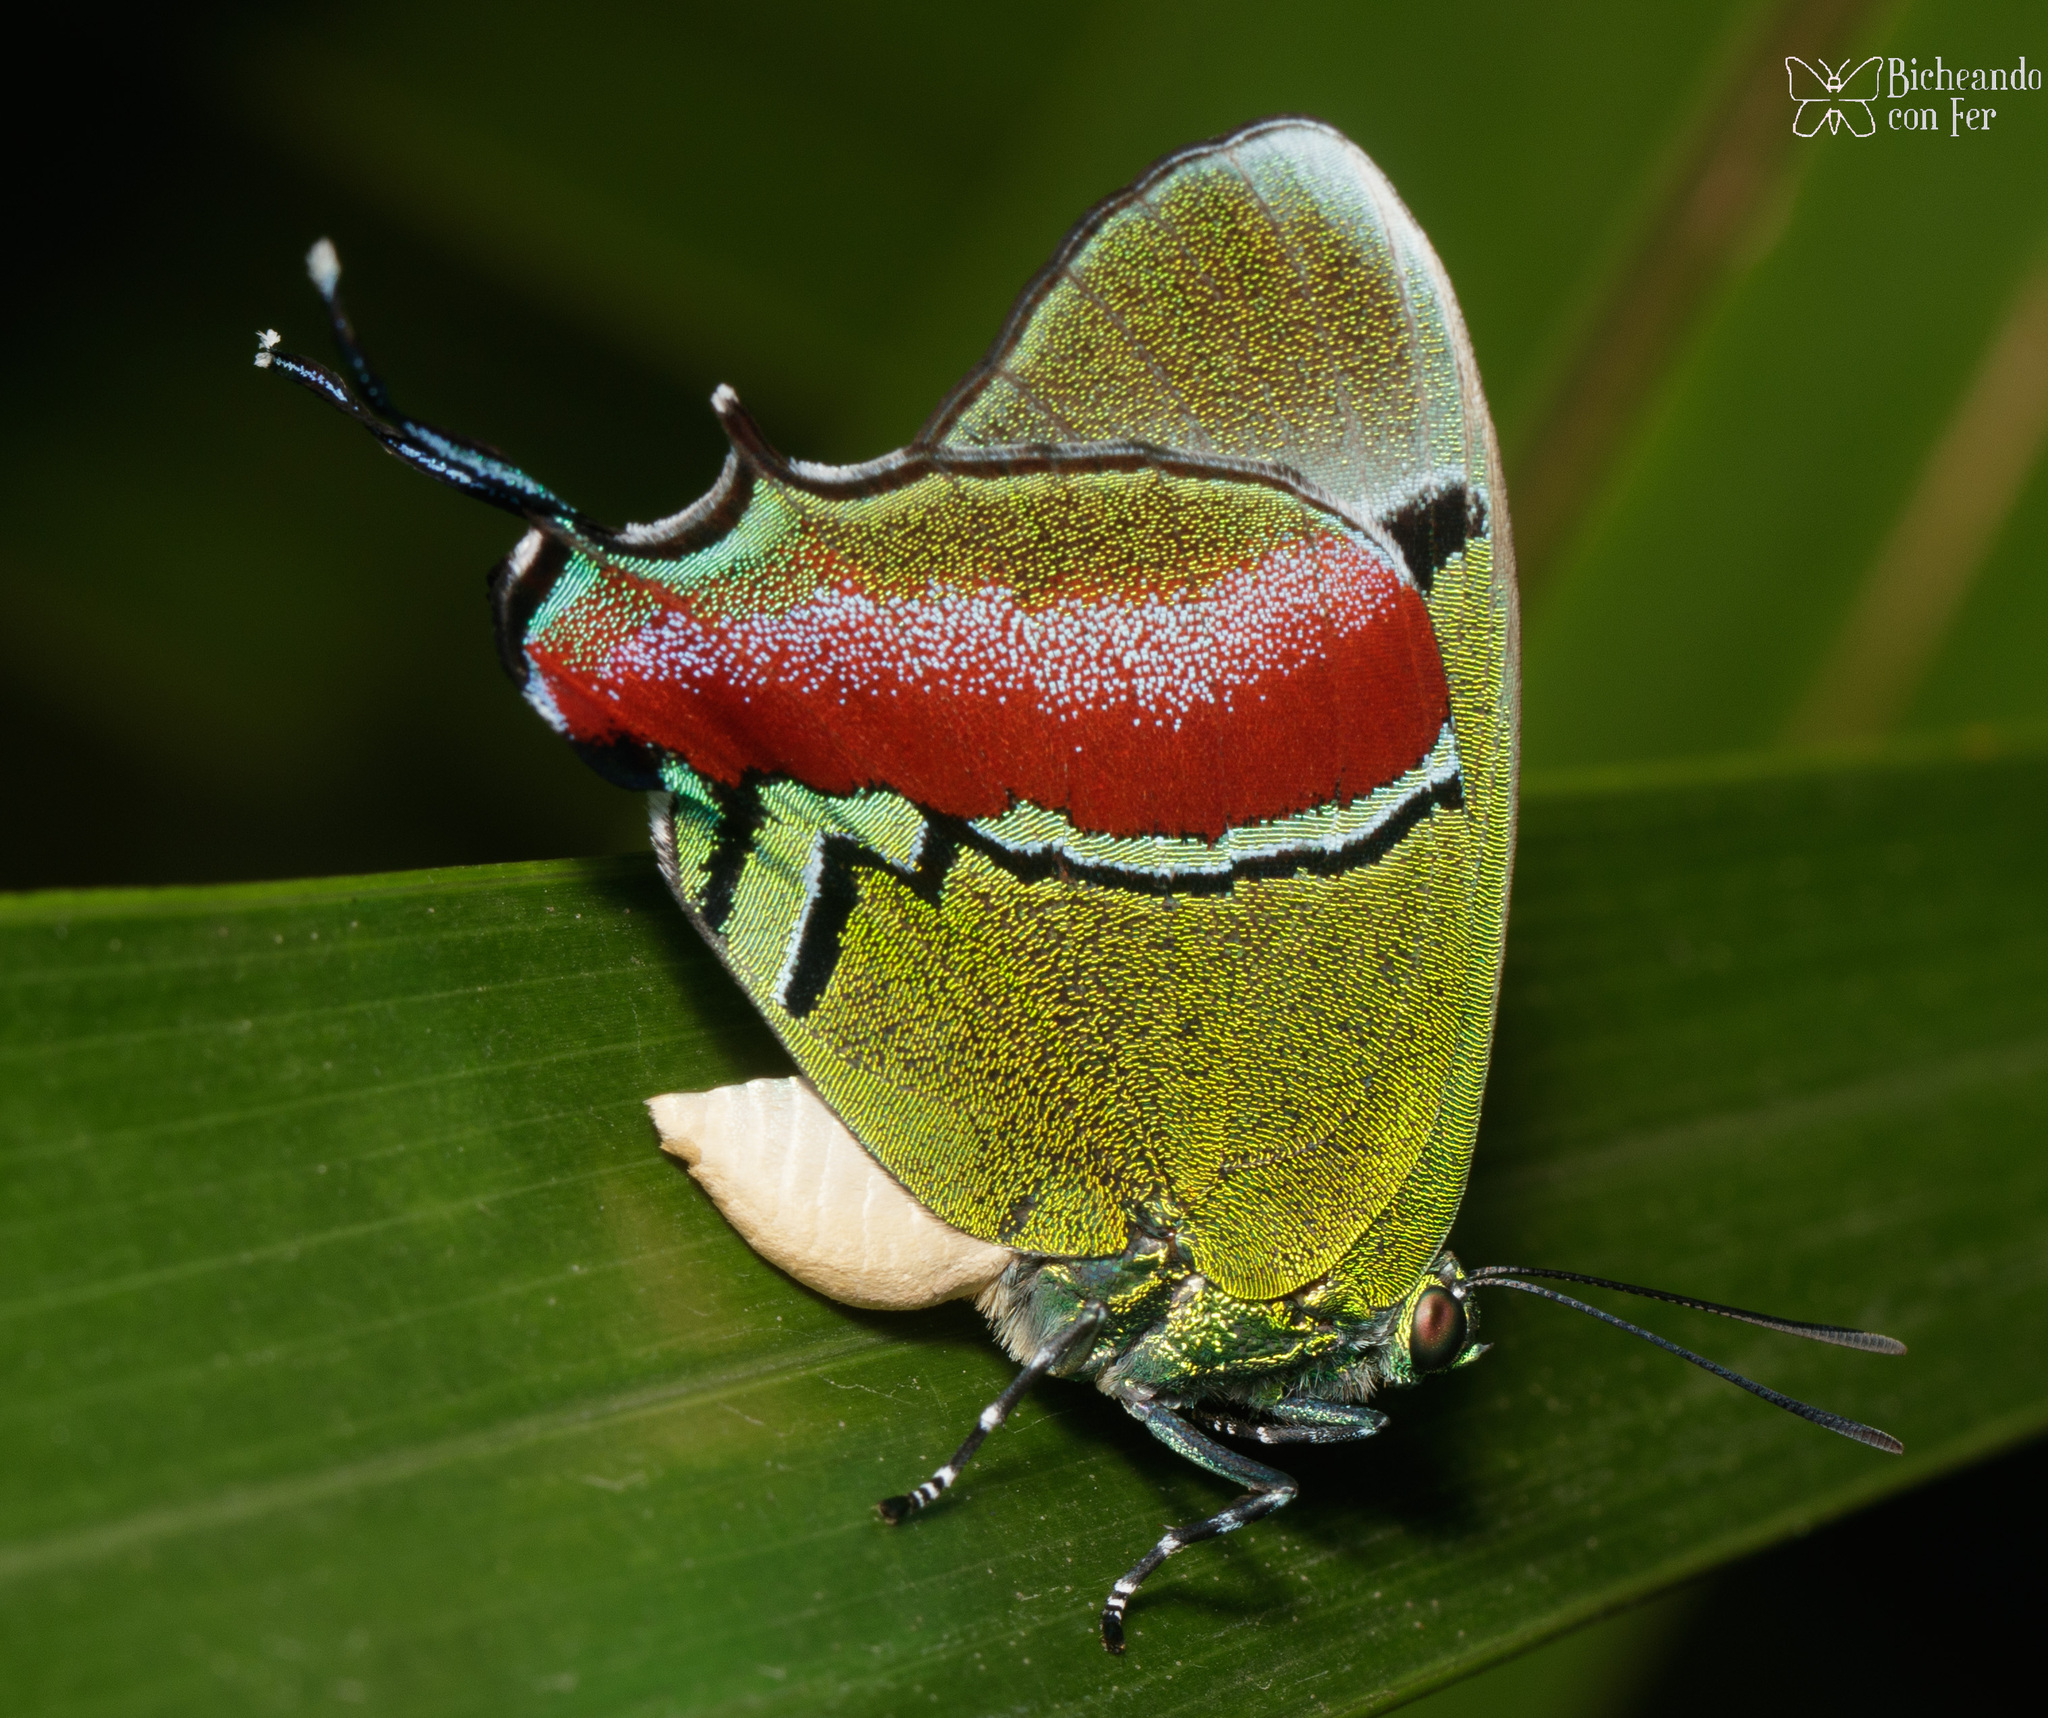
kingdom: Animalia
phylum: Arthropoda
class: Insecta
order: Lepidoptera
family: Lycaenidae
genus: Evenus
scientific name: Evenus regalis
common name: Regal hairstreak
